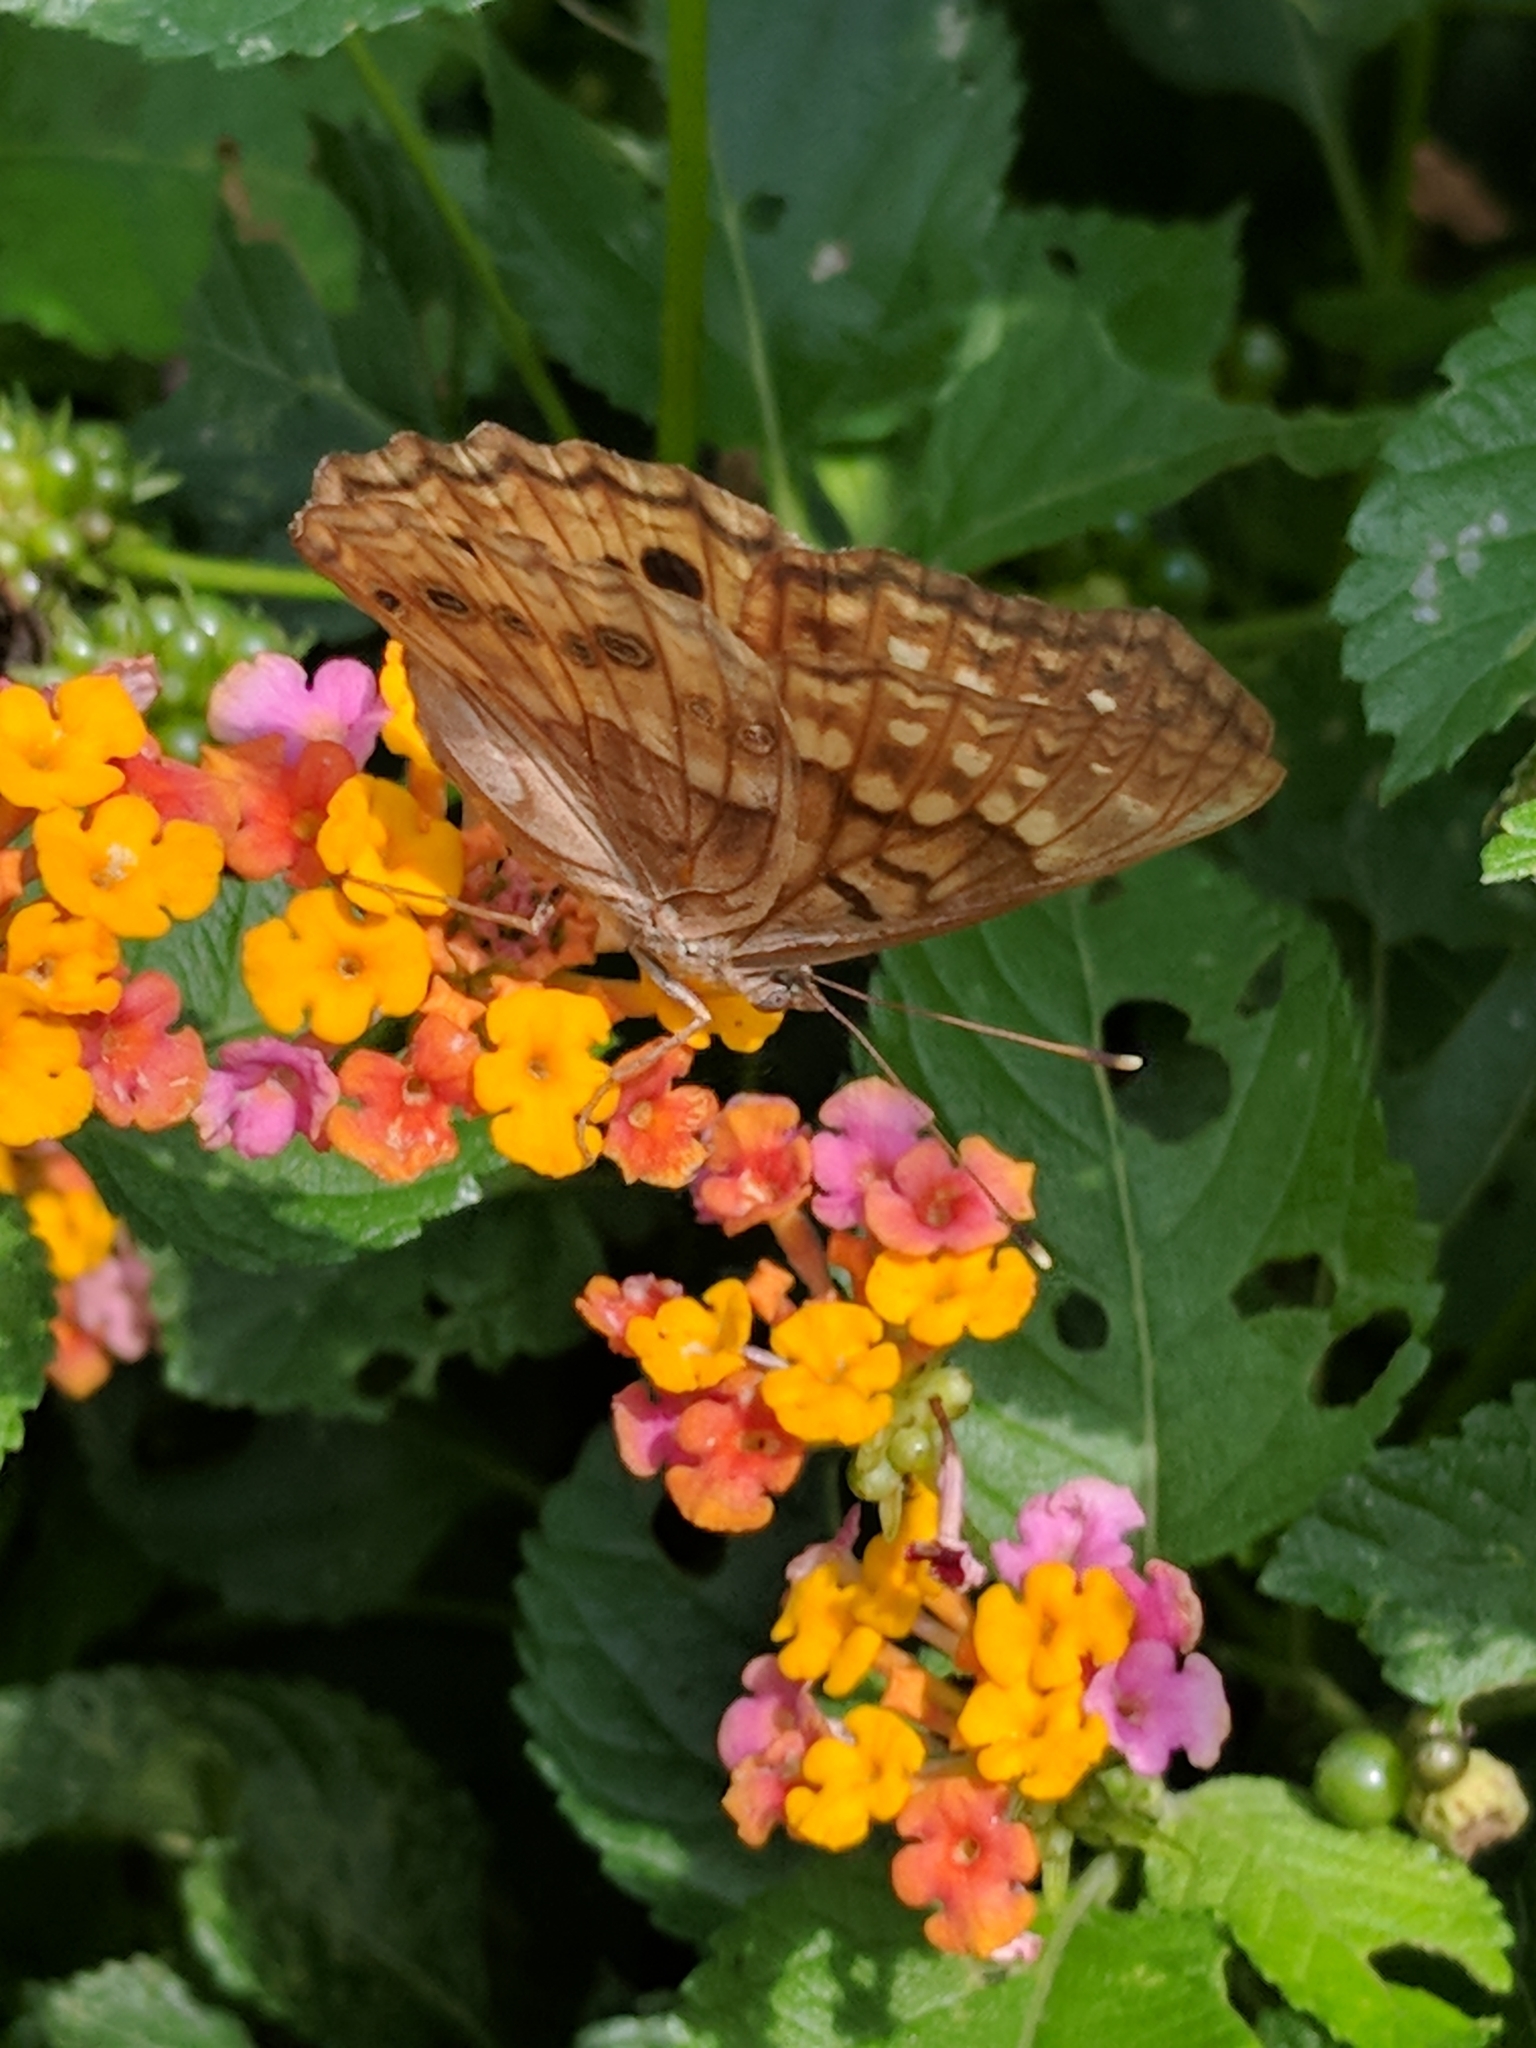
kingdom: Animalia
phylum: Arthropoda
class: Insecta
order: Lepidoptera
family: Nymphalidae
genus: Asterocampa
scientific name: Asterocampa clyton
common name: Tawny emperor
